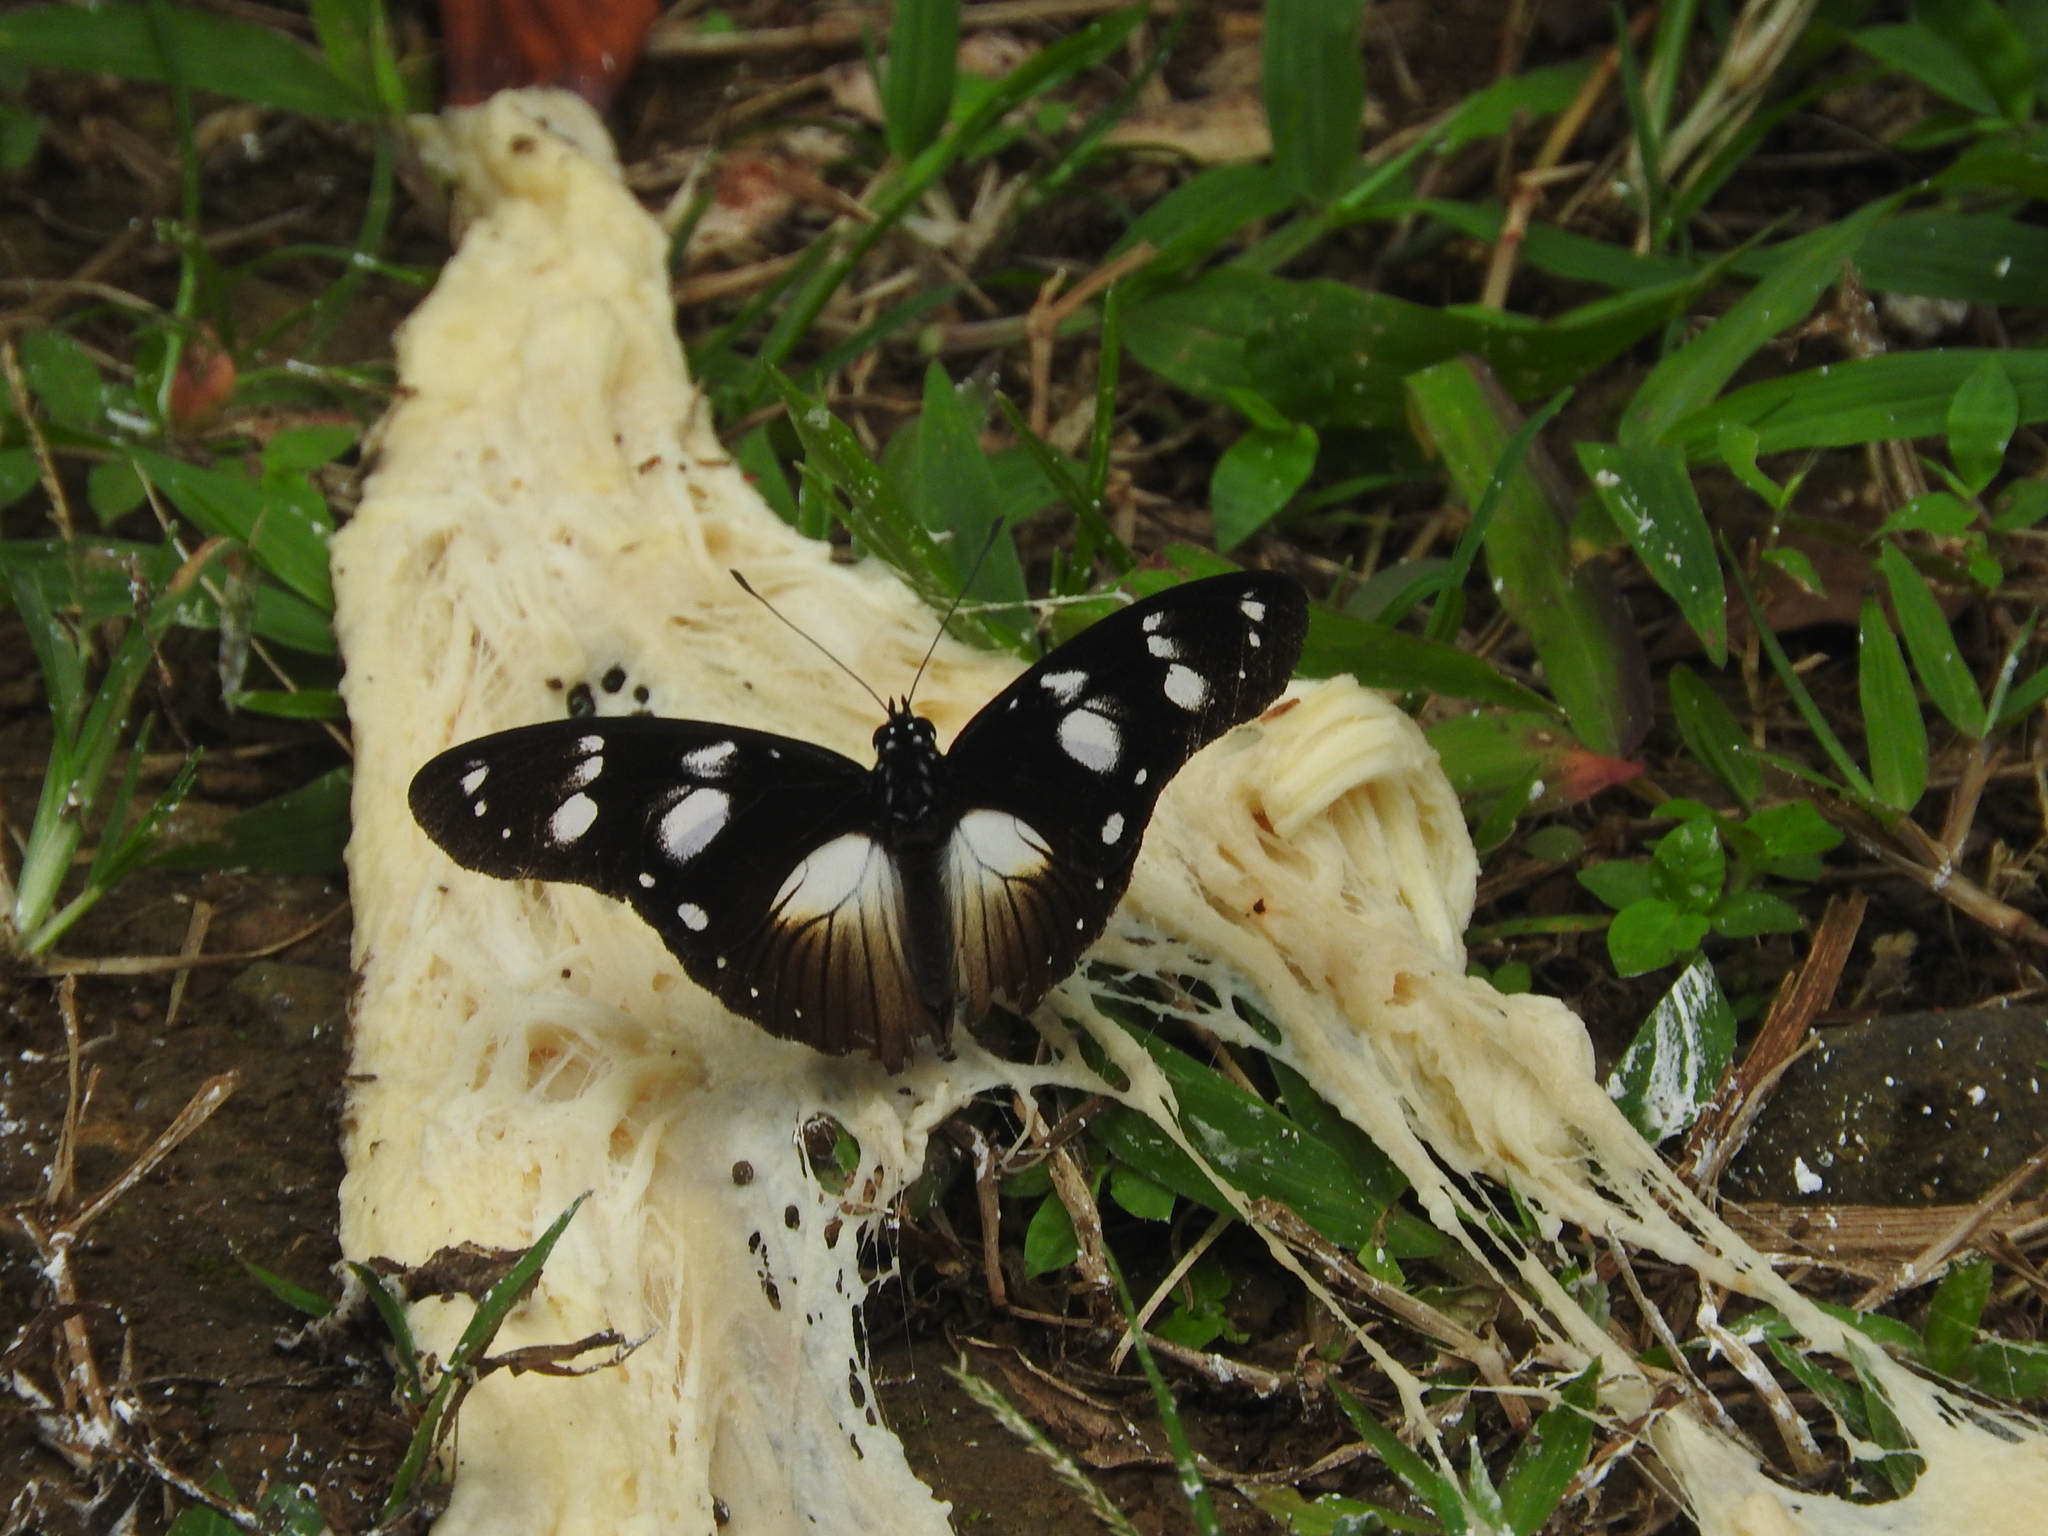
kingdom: Animalia
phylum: Arthropoda
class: Insecta
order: Lepidoptera
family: Nymphalidae
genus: Hypolimnas
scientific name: Hypolimnas dubius
